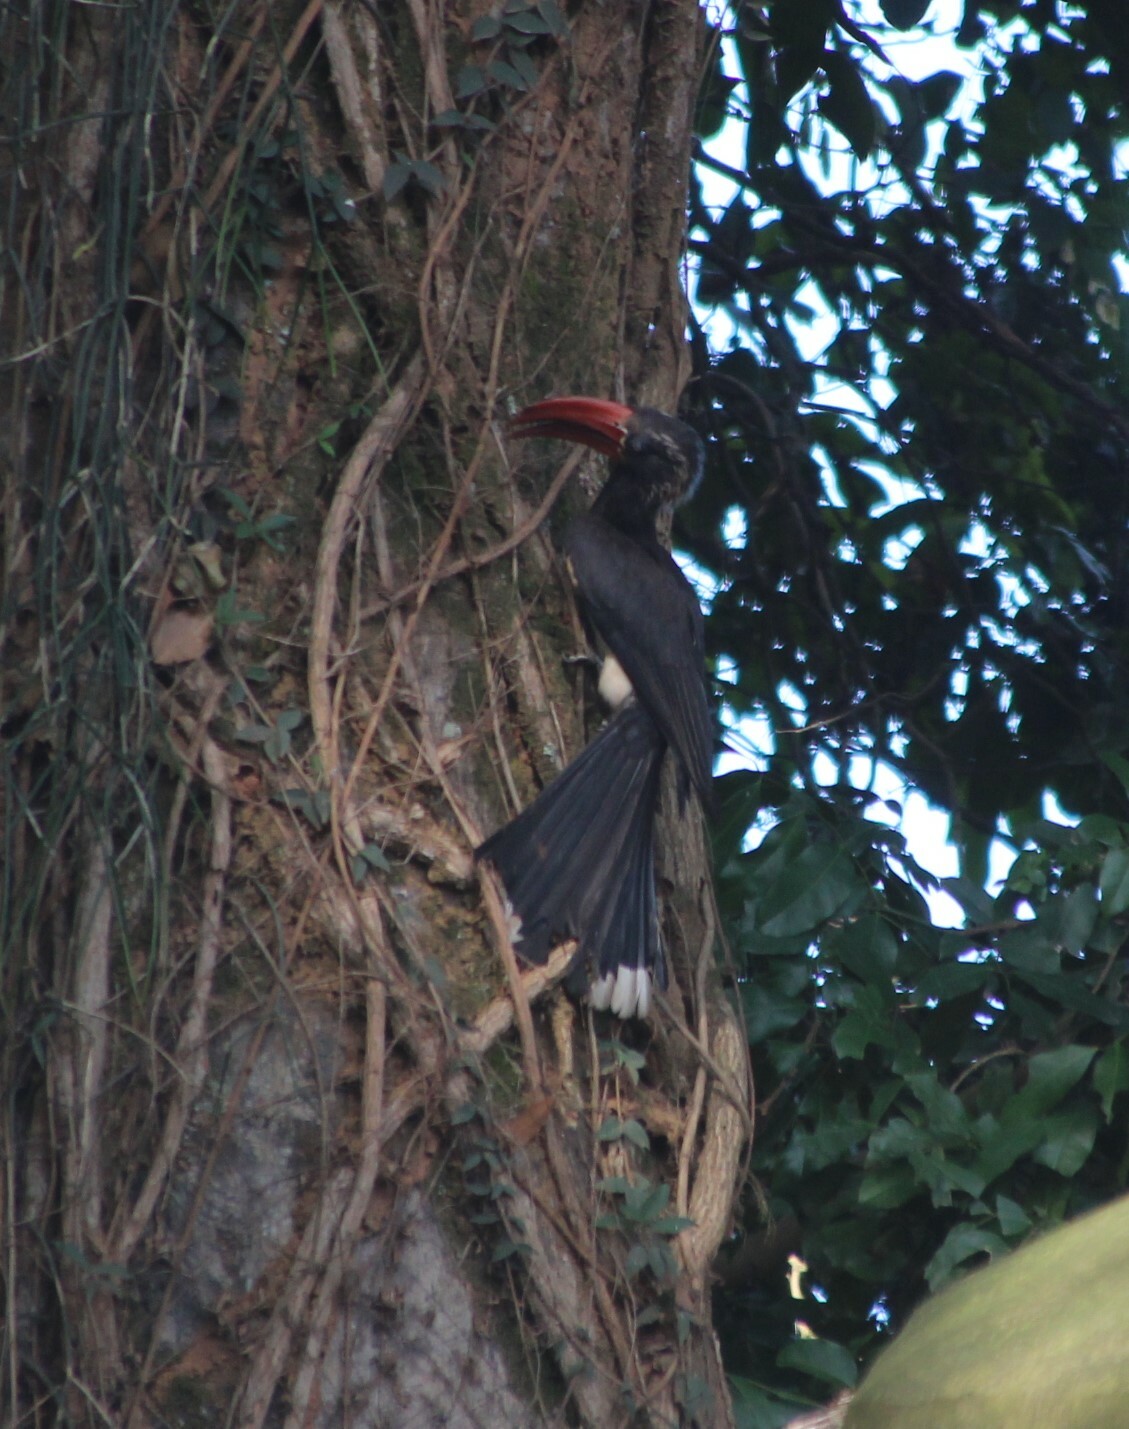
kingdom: Animalia
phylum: Chordata
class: Aves
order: Bucerotiformes
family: Bucerotidae
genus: Lophoceros
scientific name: Lophoceros alboterminatus
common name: Crowned hornbill
